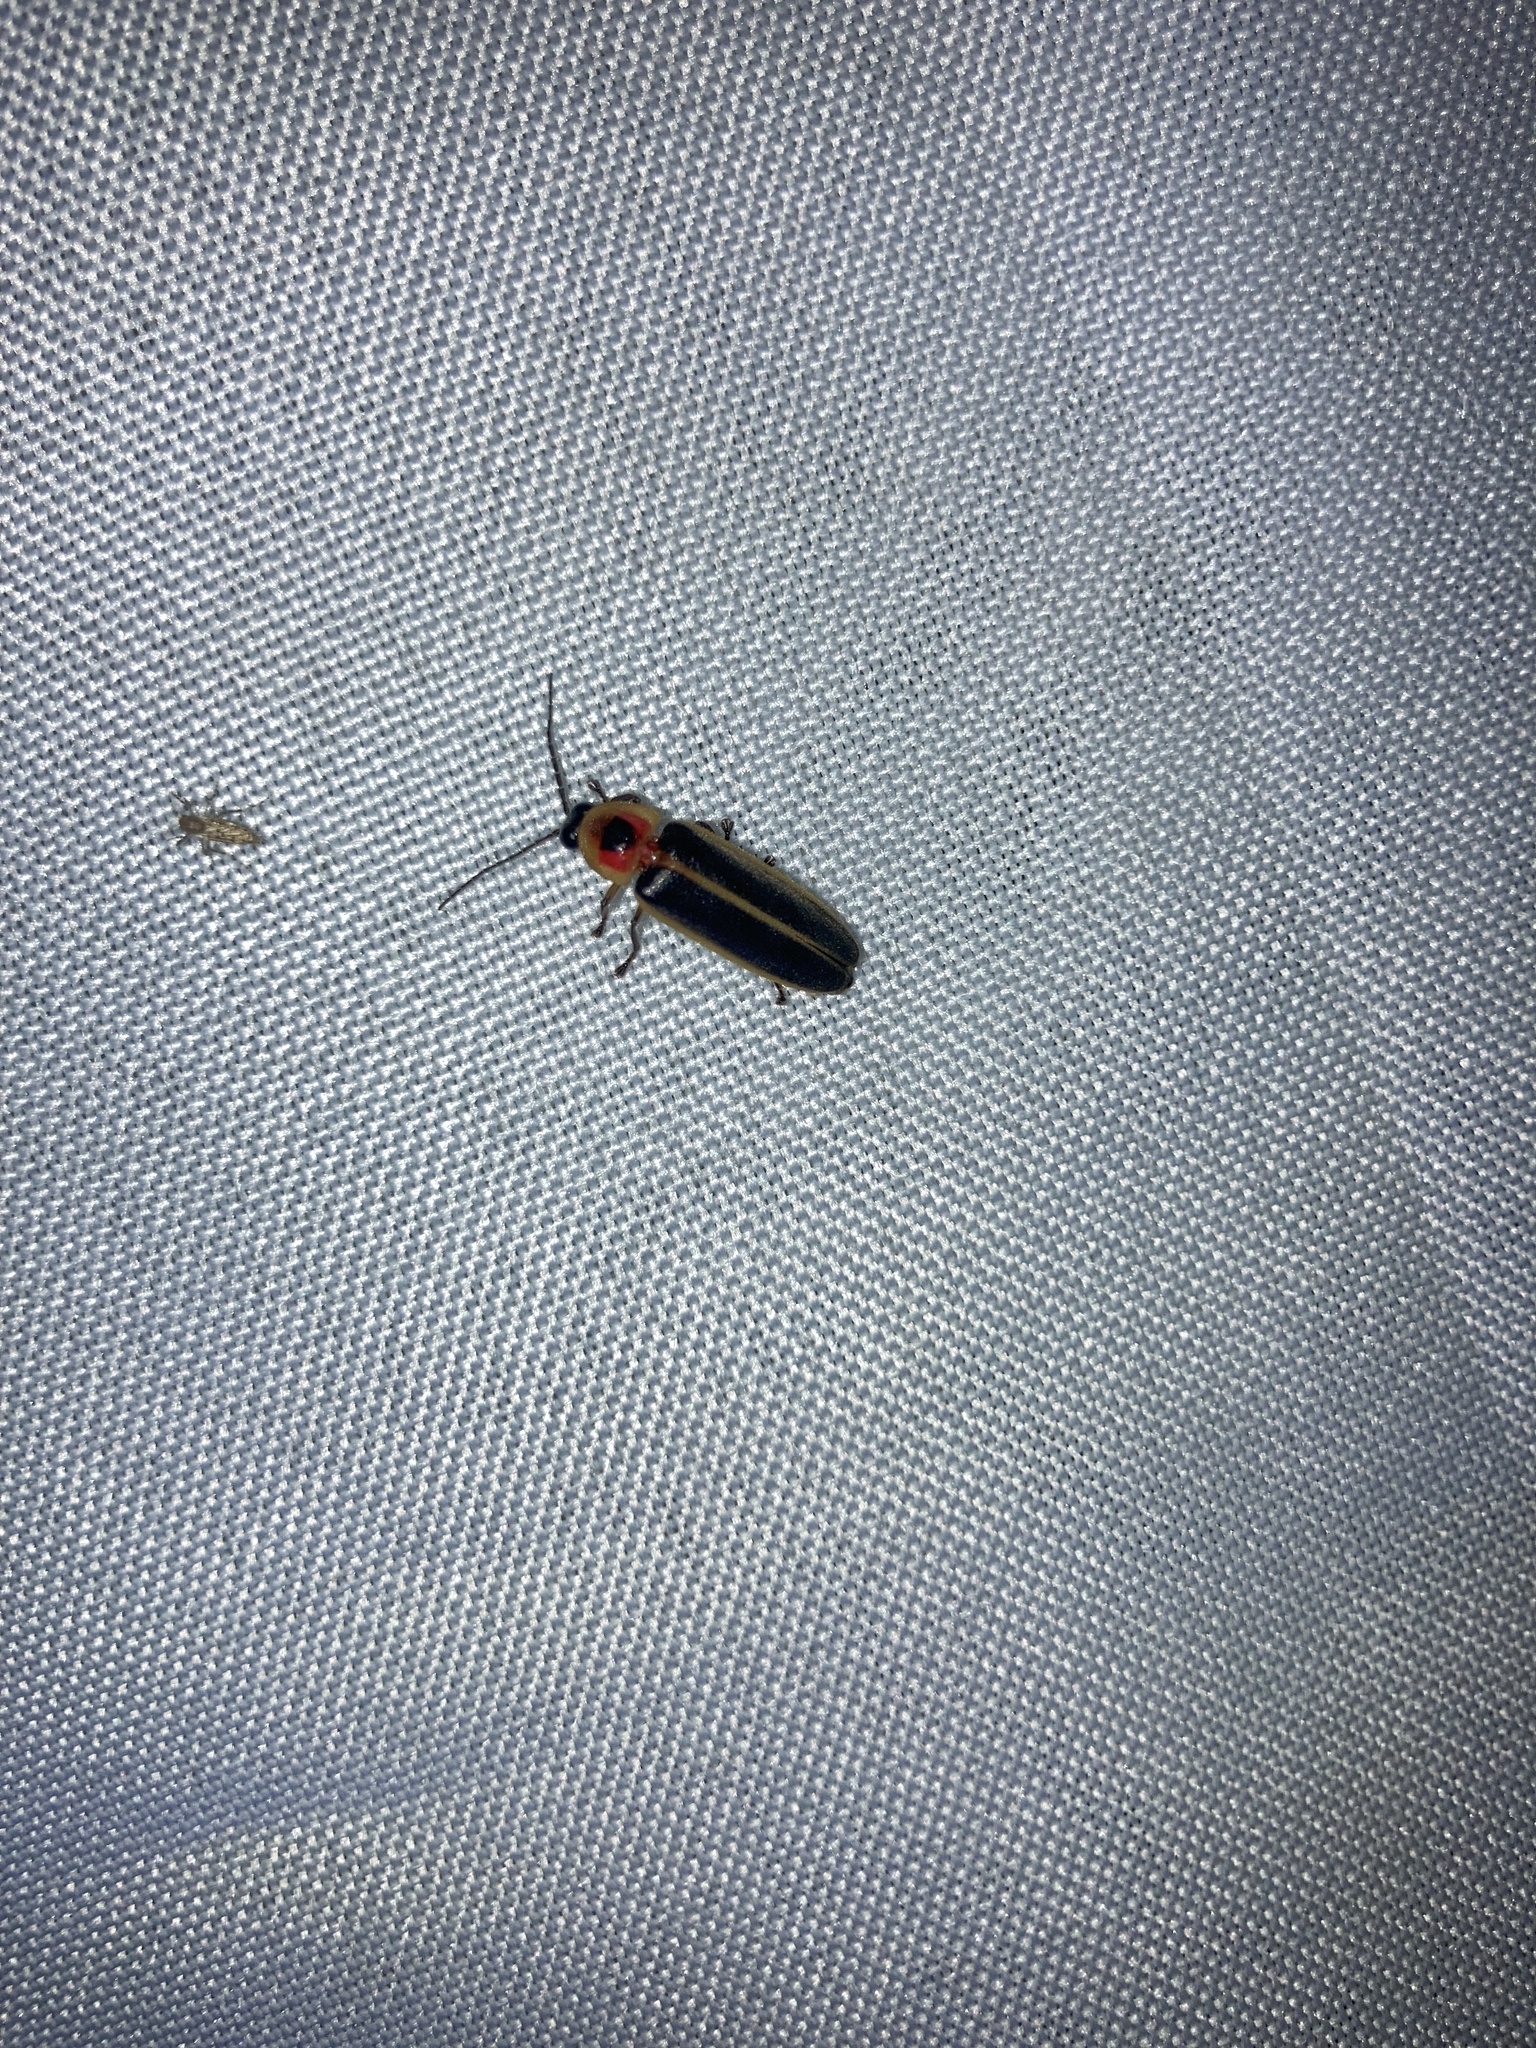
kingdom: Animalia
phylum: Arthropoda
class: Insecta
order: Coleoptera
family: Lampyridae
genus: Photinus
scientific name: Photinus pyralis
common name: Big dipper firefly
